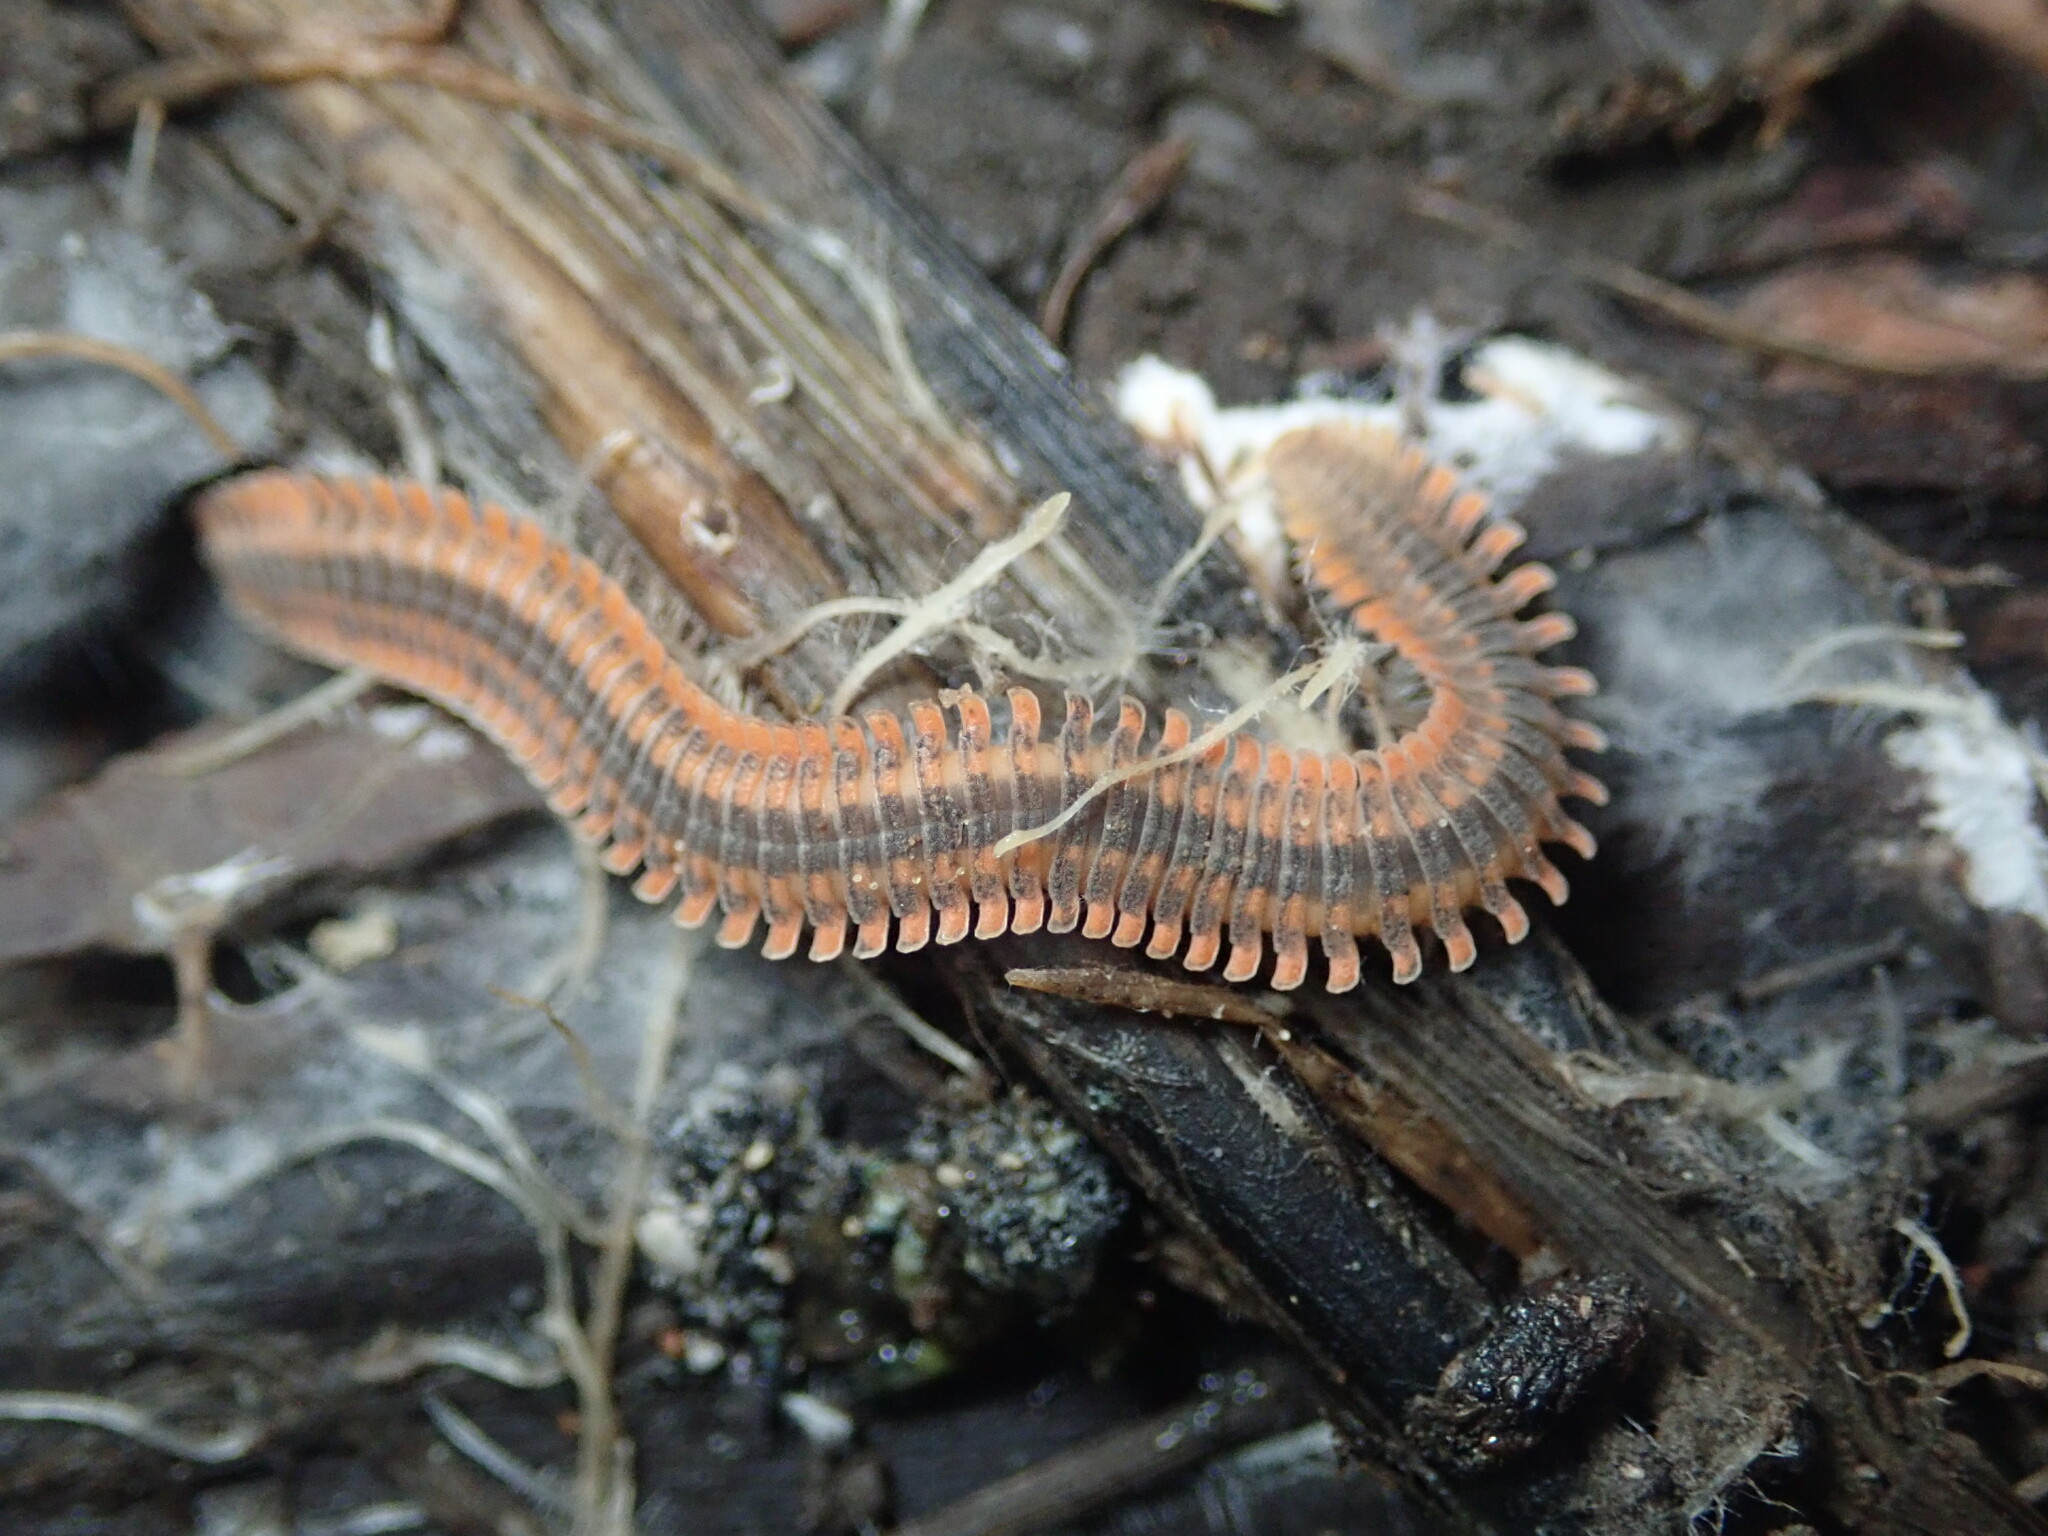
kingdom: Animalia
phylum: Arthropoda
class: Diplopoda
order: Platydesmida
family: Andrognathidae
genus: Brachycybe
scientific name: Brachycybe producta
